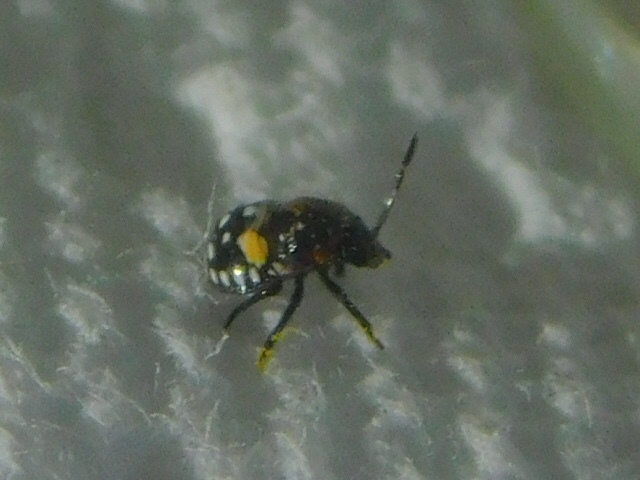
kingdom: Animalia
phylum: Arthropoda
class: Insecta
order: Hemiptera
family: Pentatomidae
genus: Thyanta
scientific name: Thyanta perditor
